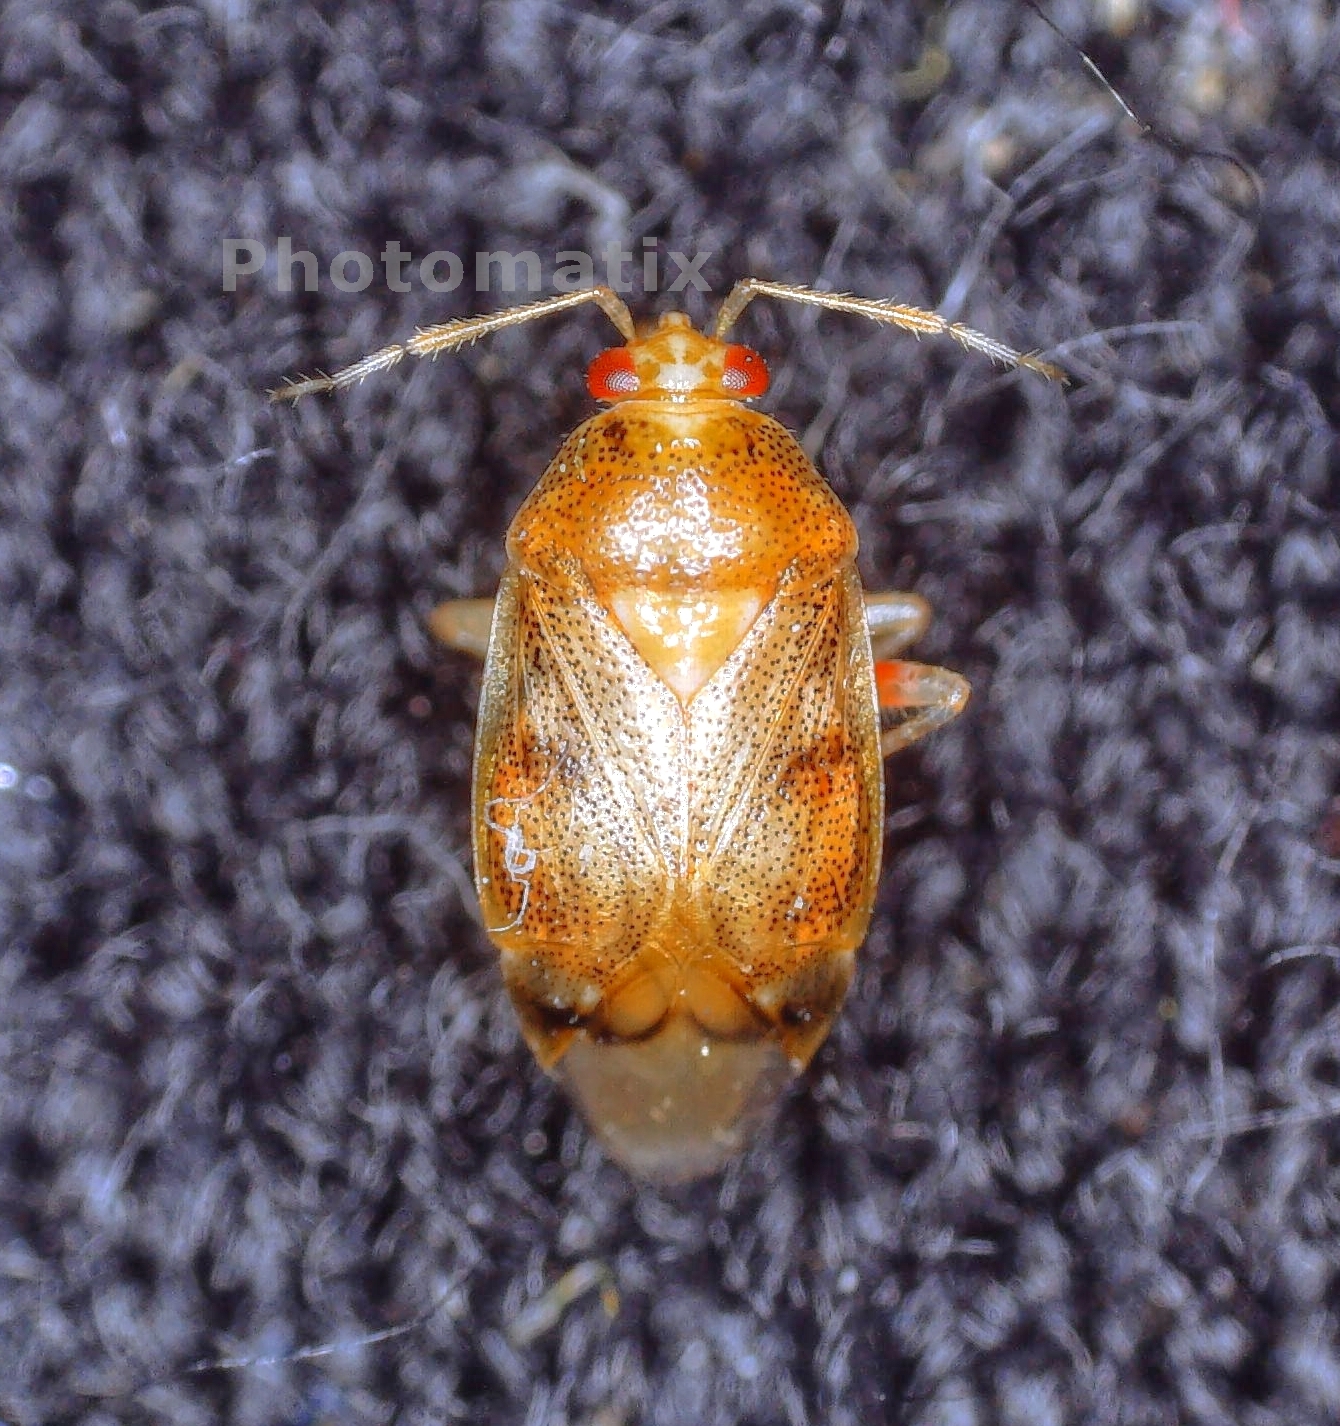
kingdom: Animalia
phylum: Arthropoda
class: Insecta
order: Hemiptera
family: Miridae
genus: Deraeocoris
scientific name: Deraeocoris lutescens
